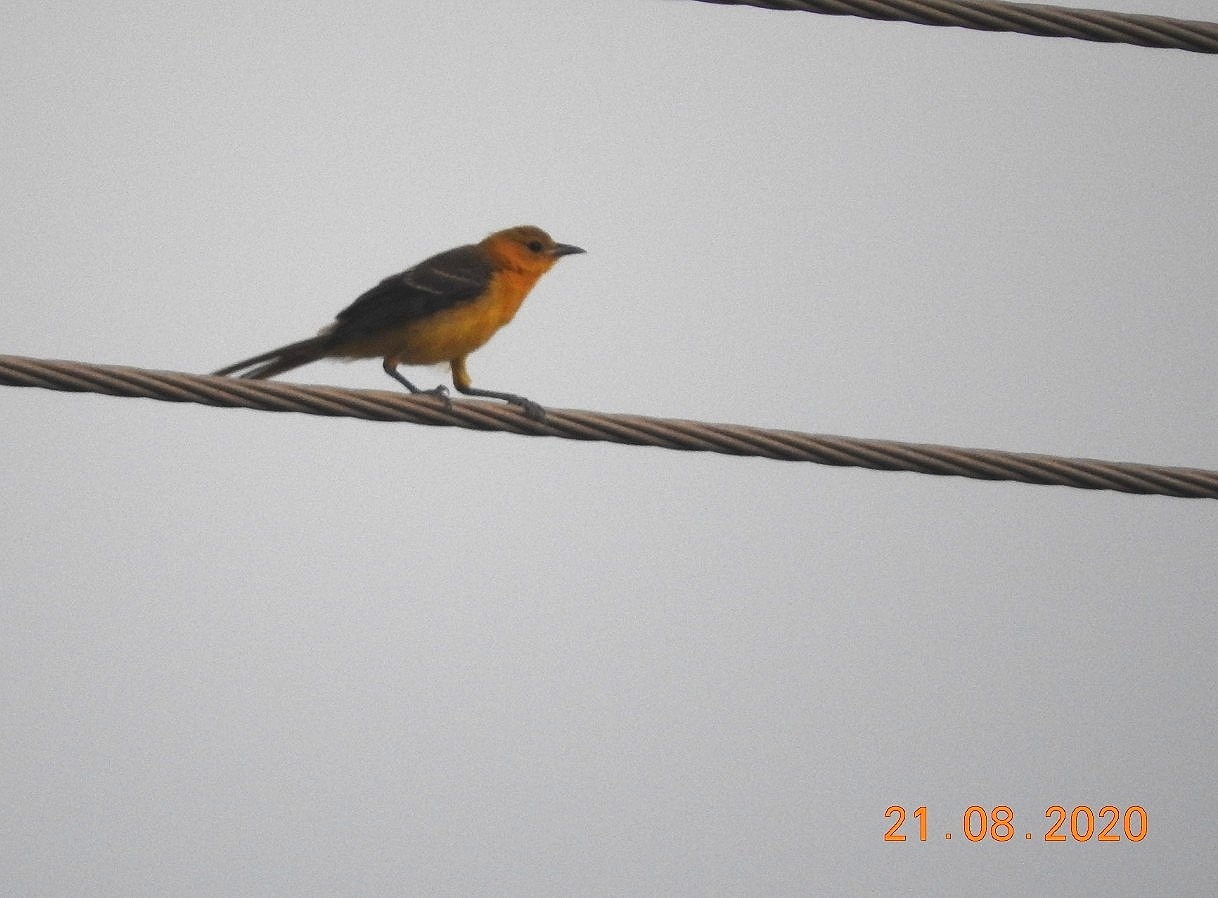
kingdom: Animalia
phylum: Chordata
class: Aves
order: Passeriformes
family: Icteridae
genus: Icterus
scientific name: Icterus cucullatus
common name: Hooded oriole
